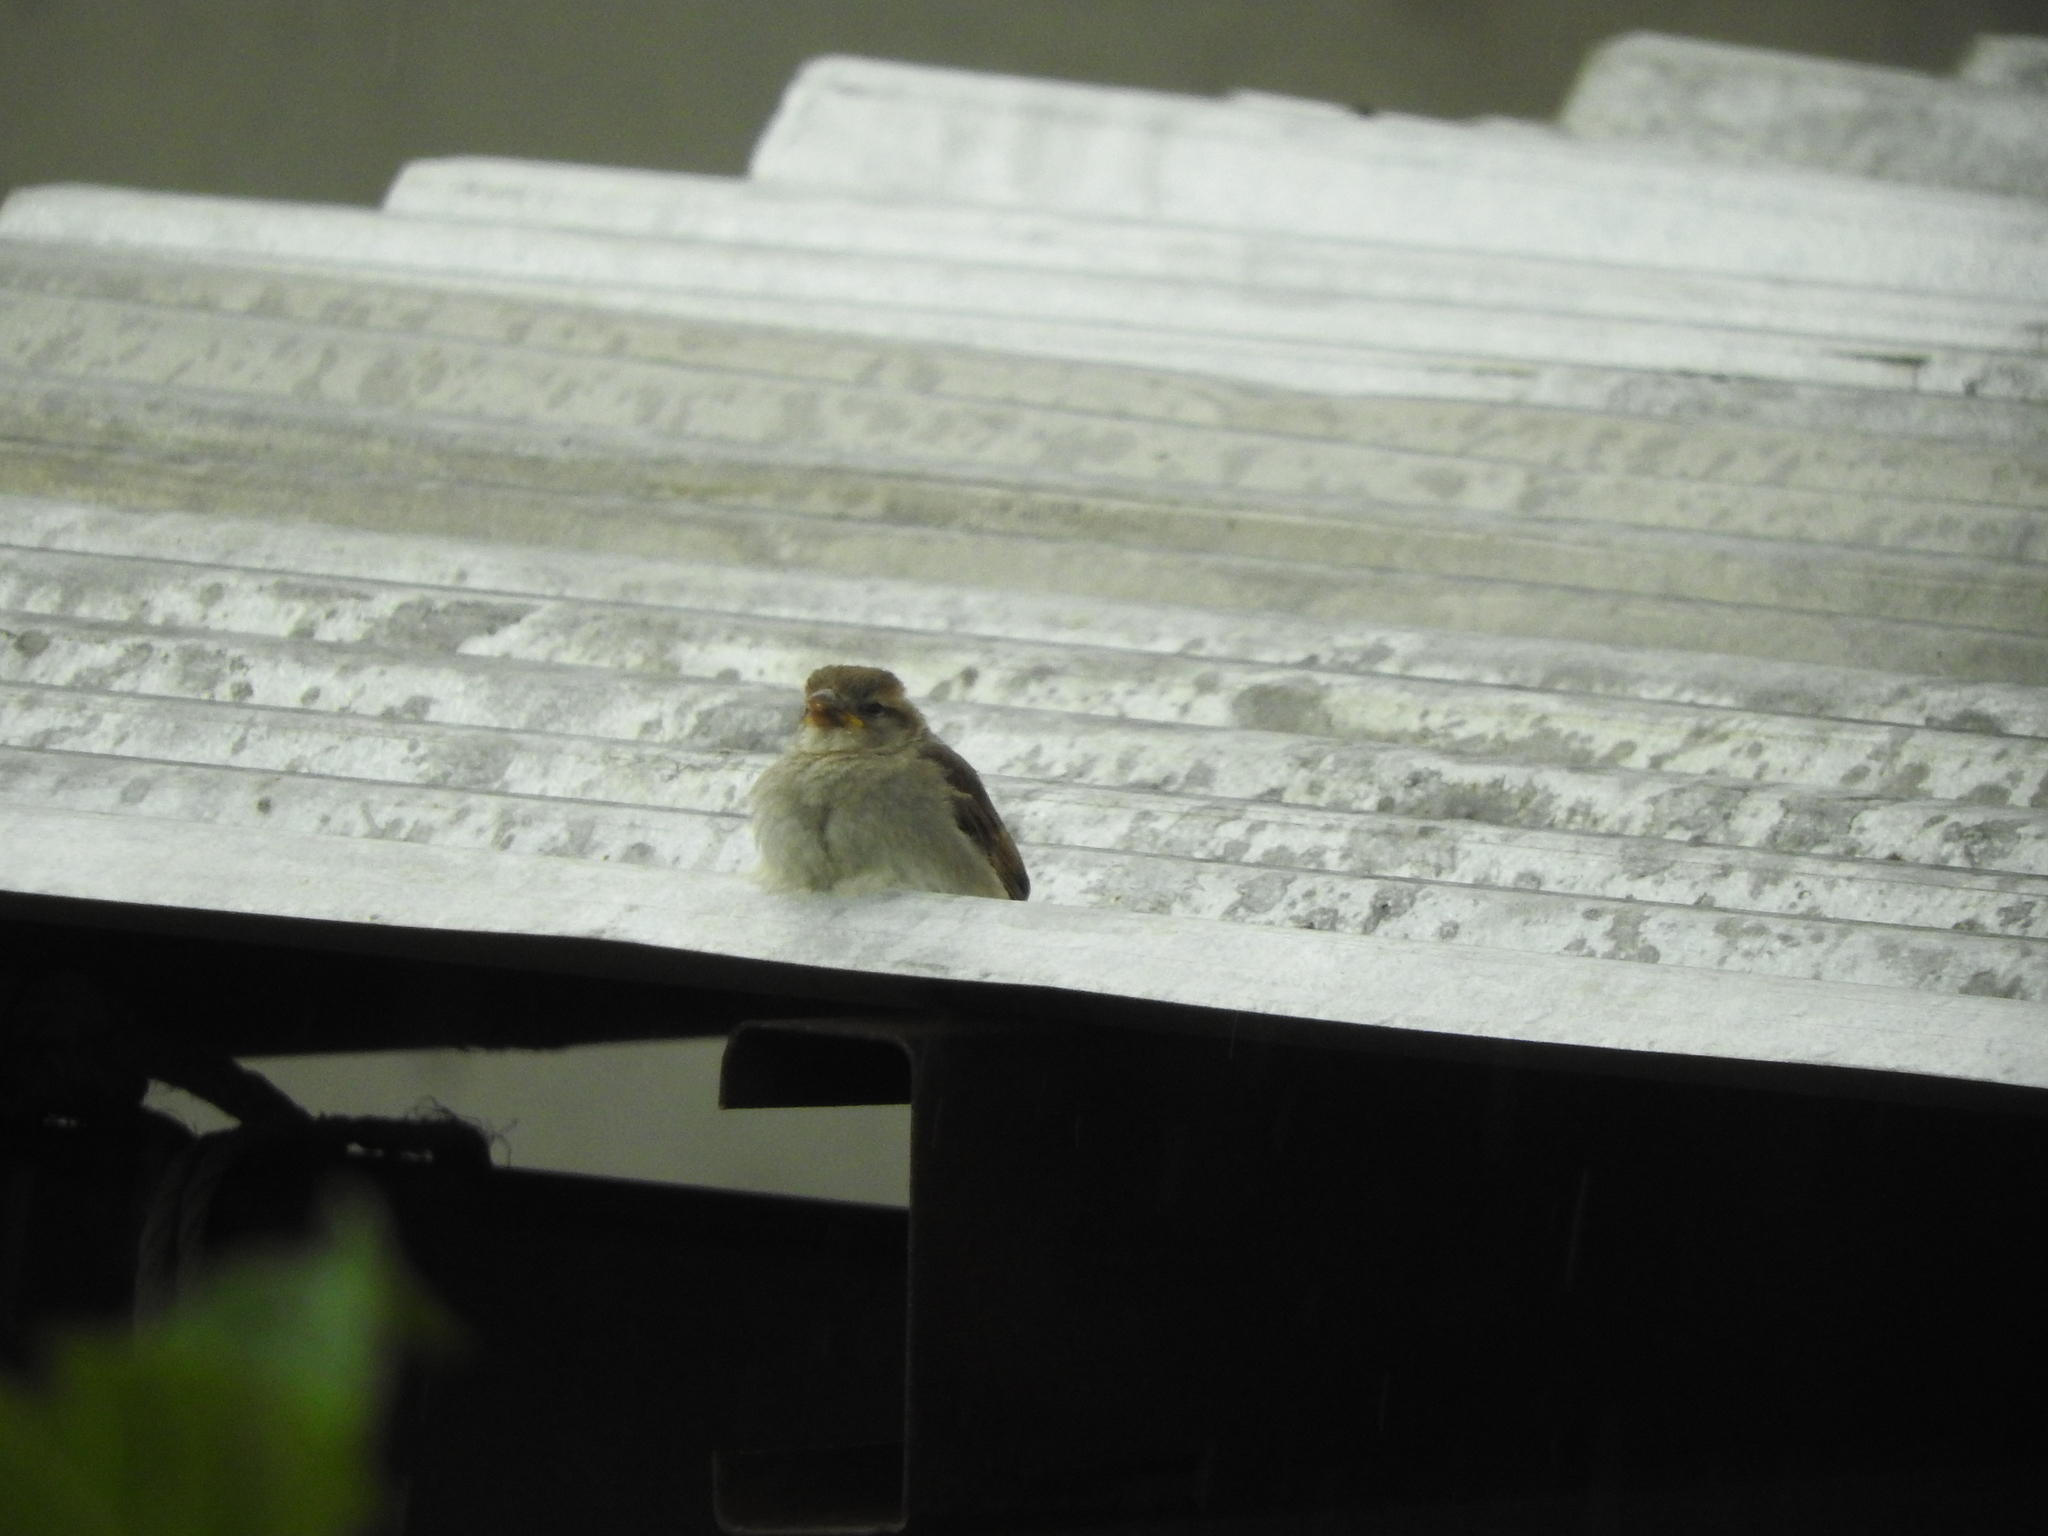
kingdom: Animalia
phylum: Chordata
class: Aves
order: Passeriformes
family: Passeridae
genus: Passer
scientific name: Passer domesticus
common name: House sparrow
